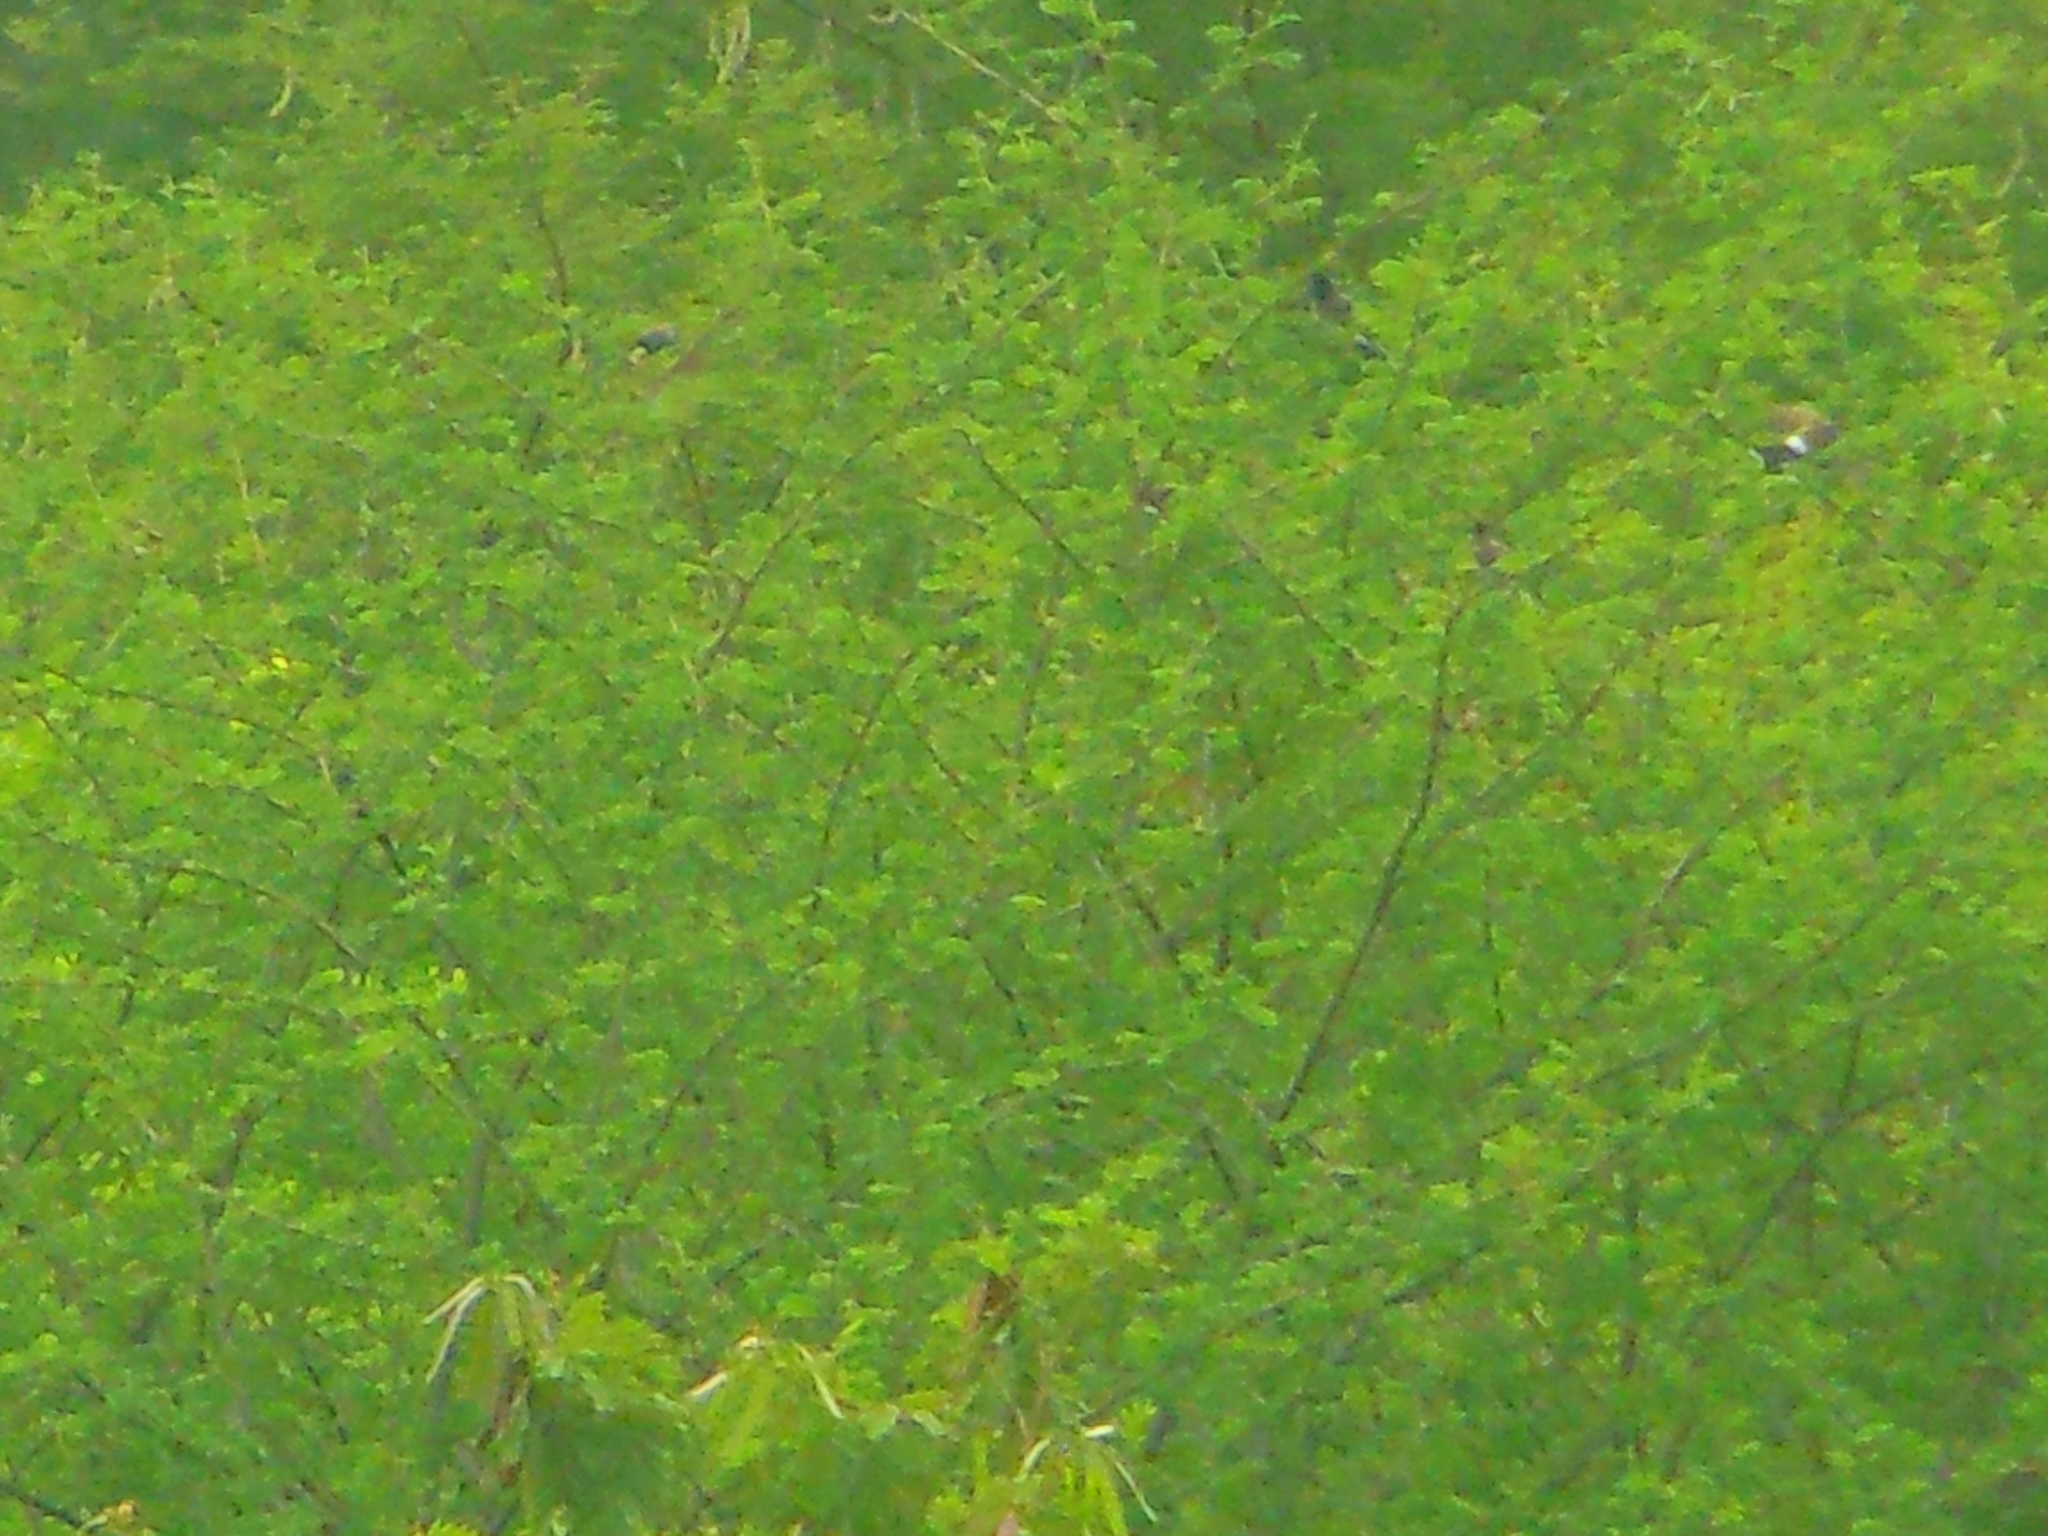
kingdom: Animalia
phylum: Chordata
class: Aves
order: Passeriformes
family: Pycnonotidae
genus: Pycnonotus
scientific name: Pycnonotus cafer
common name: Red-vented bulbul
